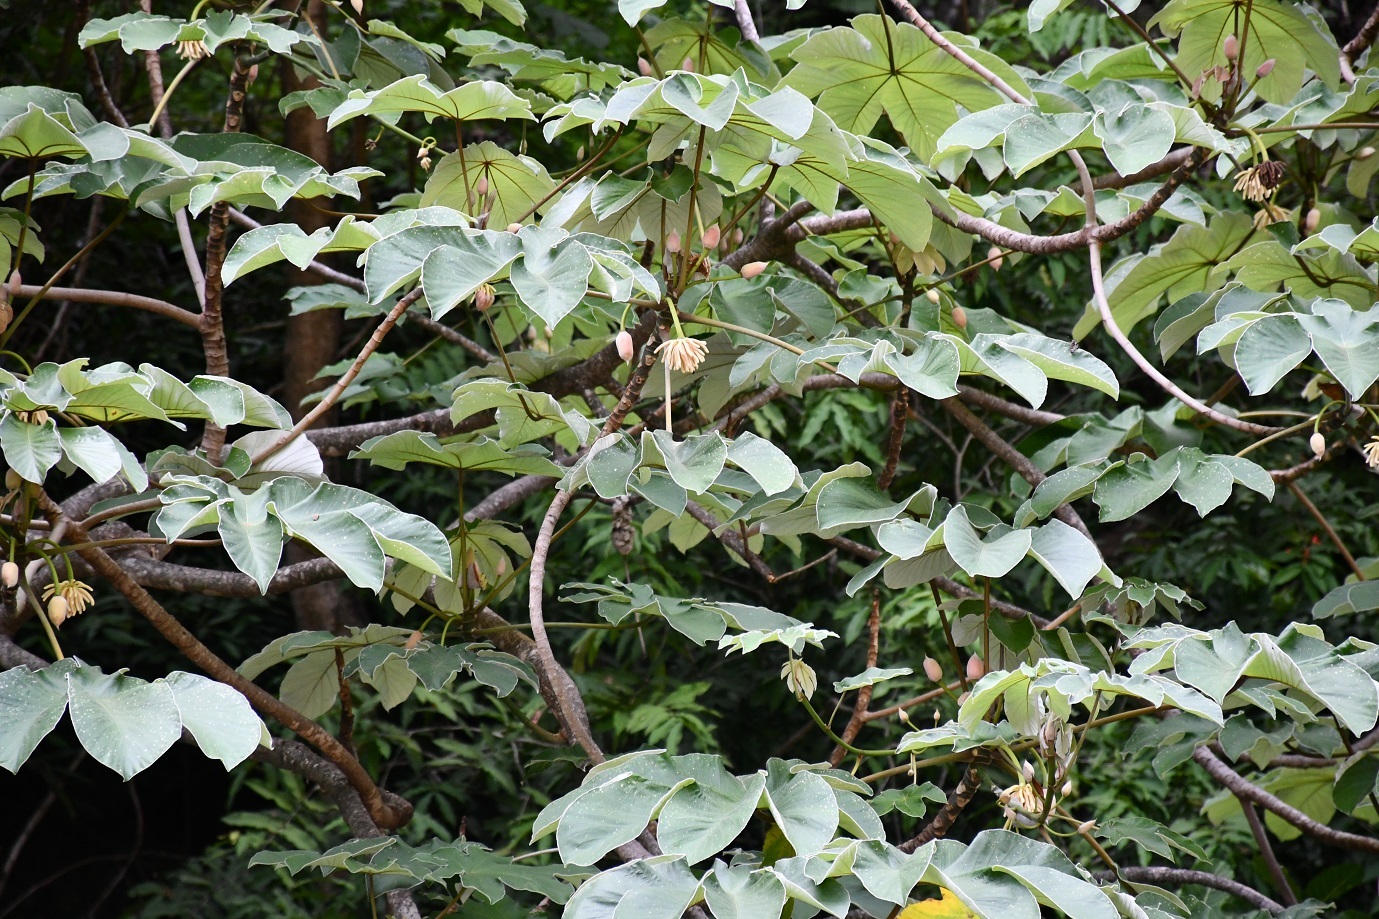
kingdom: Plantae
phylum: Tracheophyta
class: Magnoliopsida
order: Rosales
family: Urticaceae
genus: Cecropia
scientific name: Cecropia peltata
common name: Trumpet-tree
